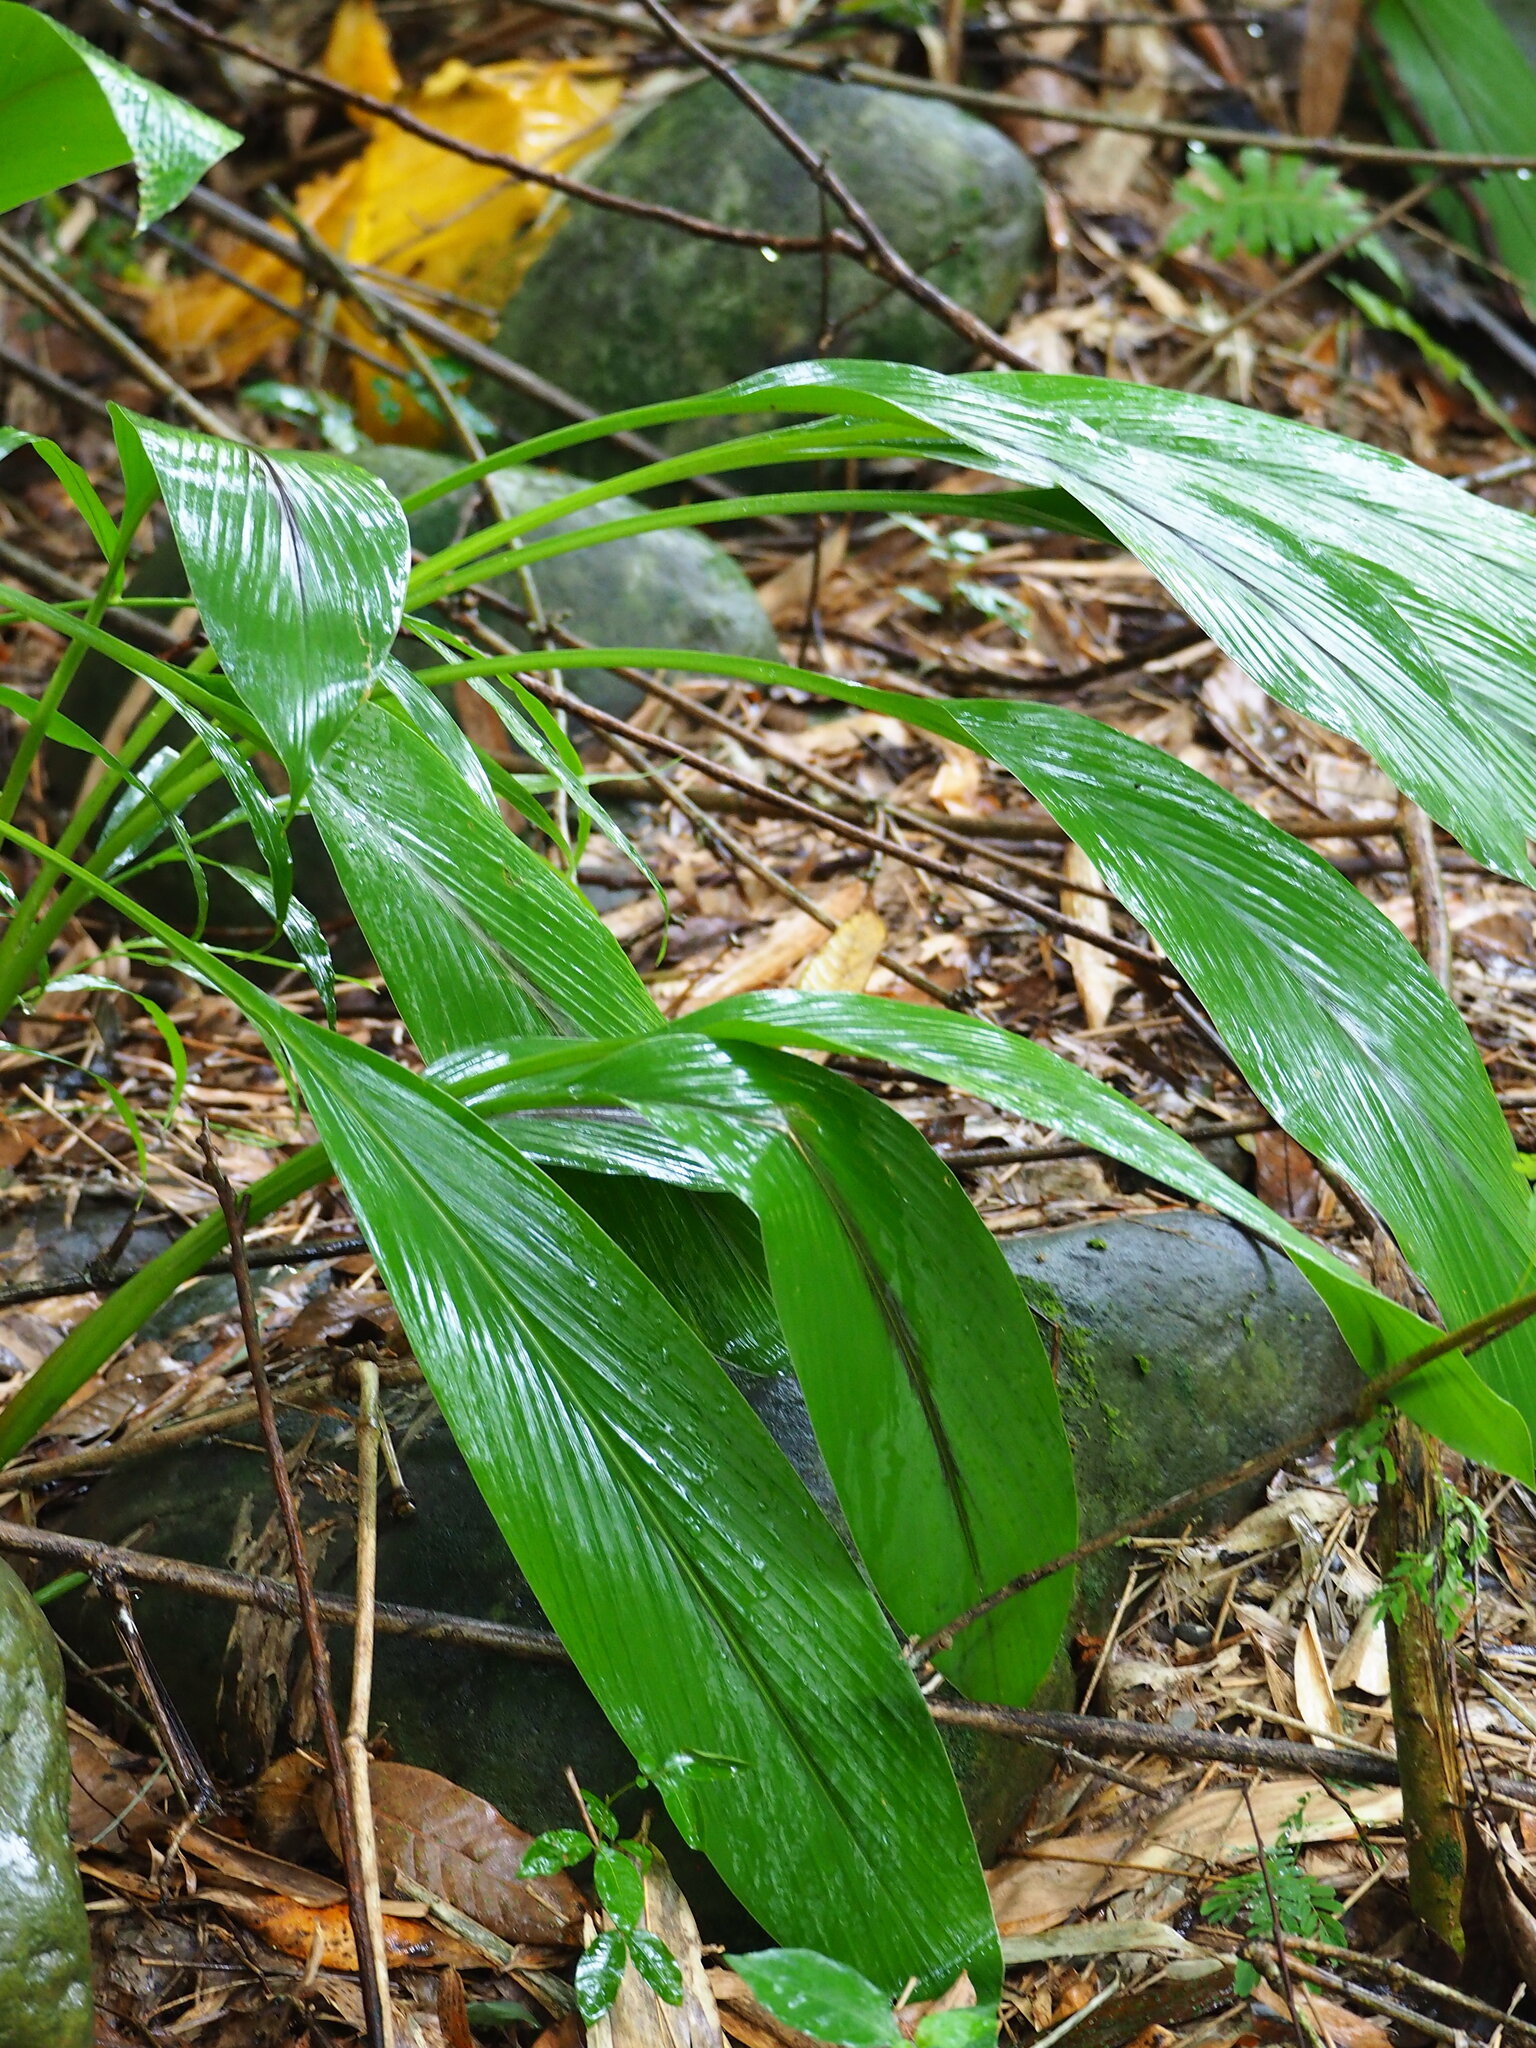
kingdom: Plantae
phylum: Tracheophyta
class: Liliopsida
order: Zingiberales
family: Zingiberaceae
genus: Curcuma
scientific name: Curcuma longa
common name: Turmeric
